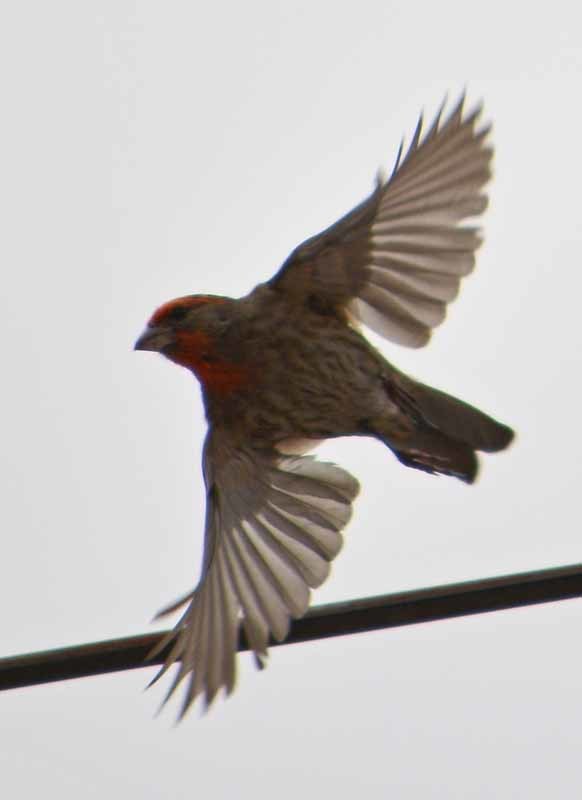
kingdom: Animalia
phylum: Chordata
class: Aves
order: Passeriformes
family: Fringillidae
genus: Haemorhous
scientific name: Haemorhous mexicanus
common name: House finch
